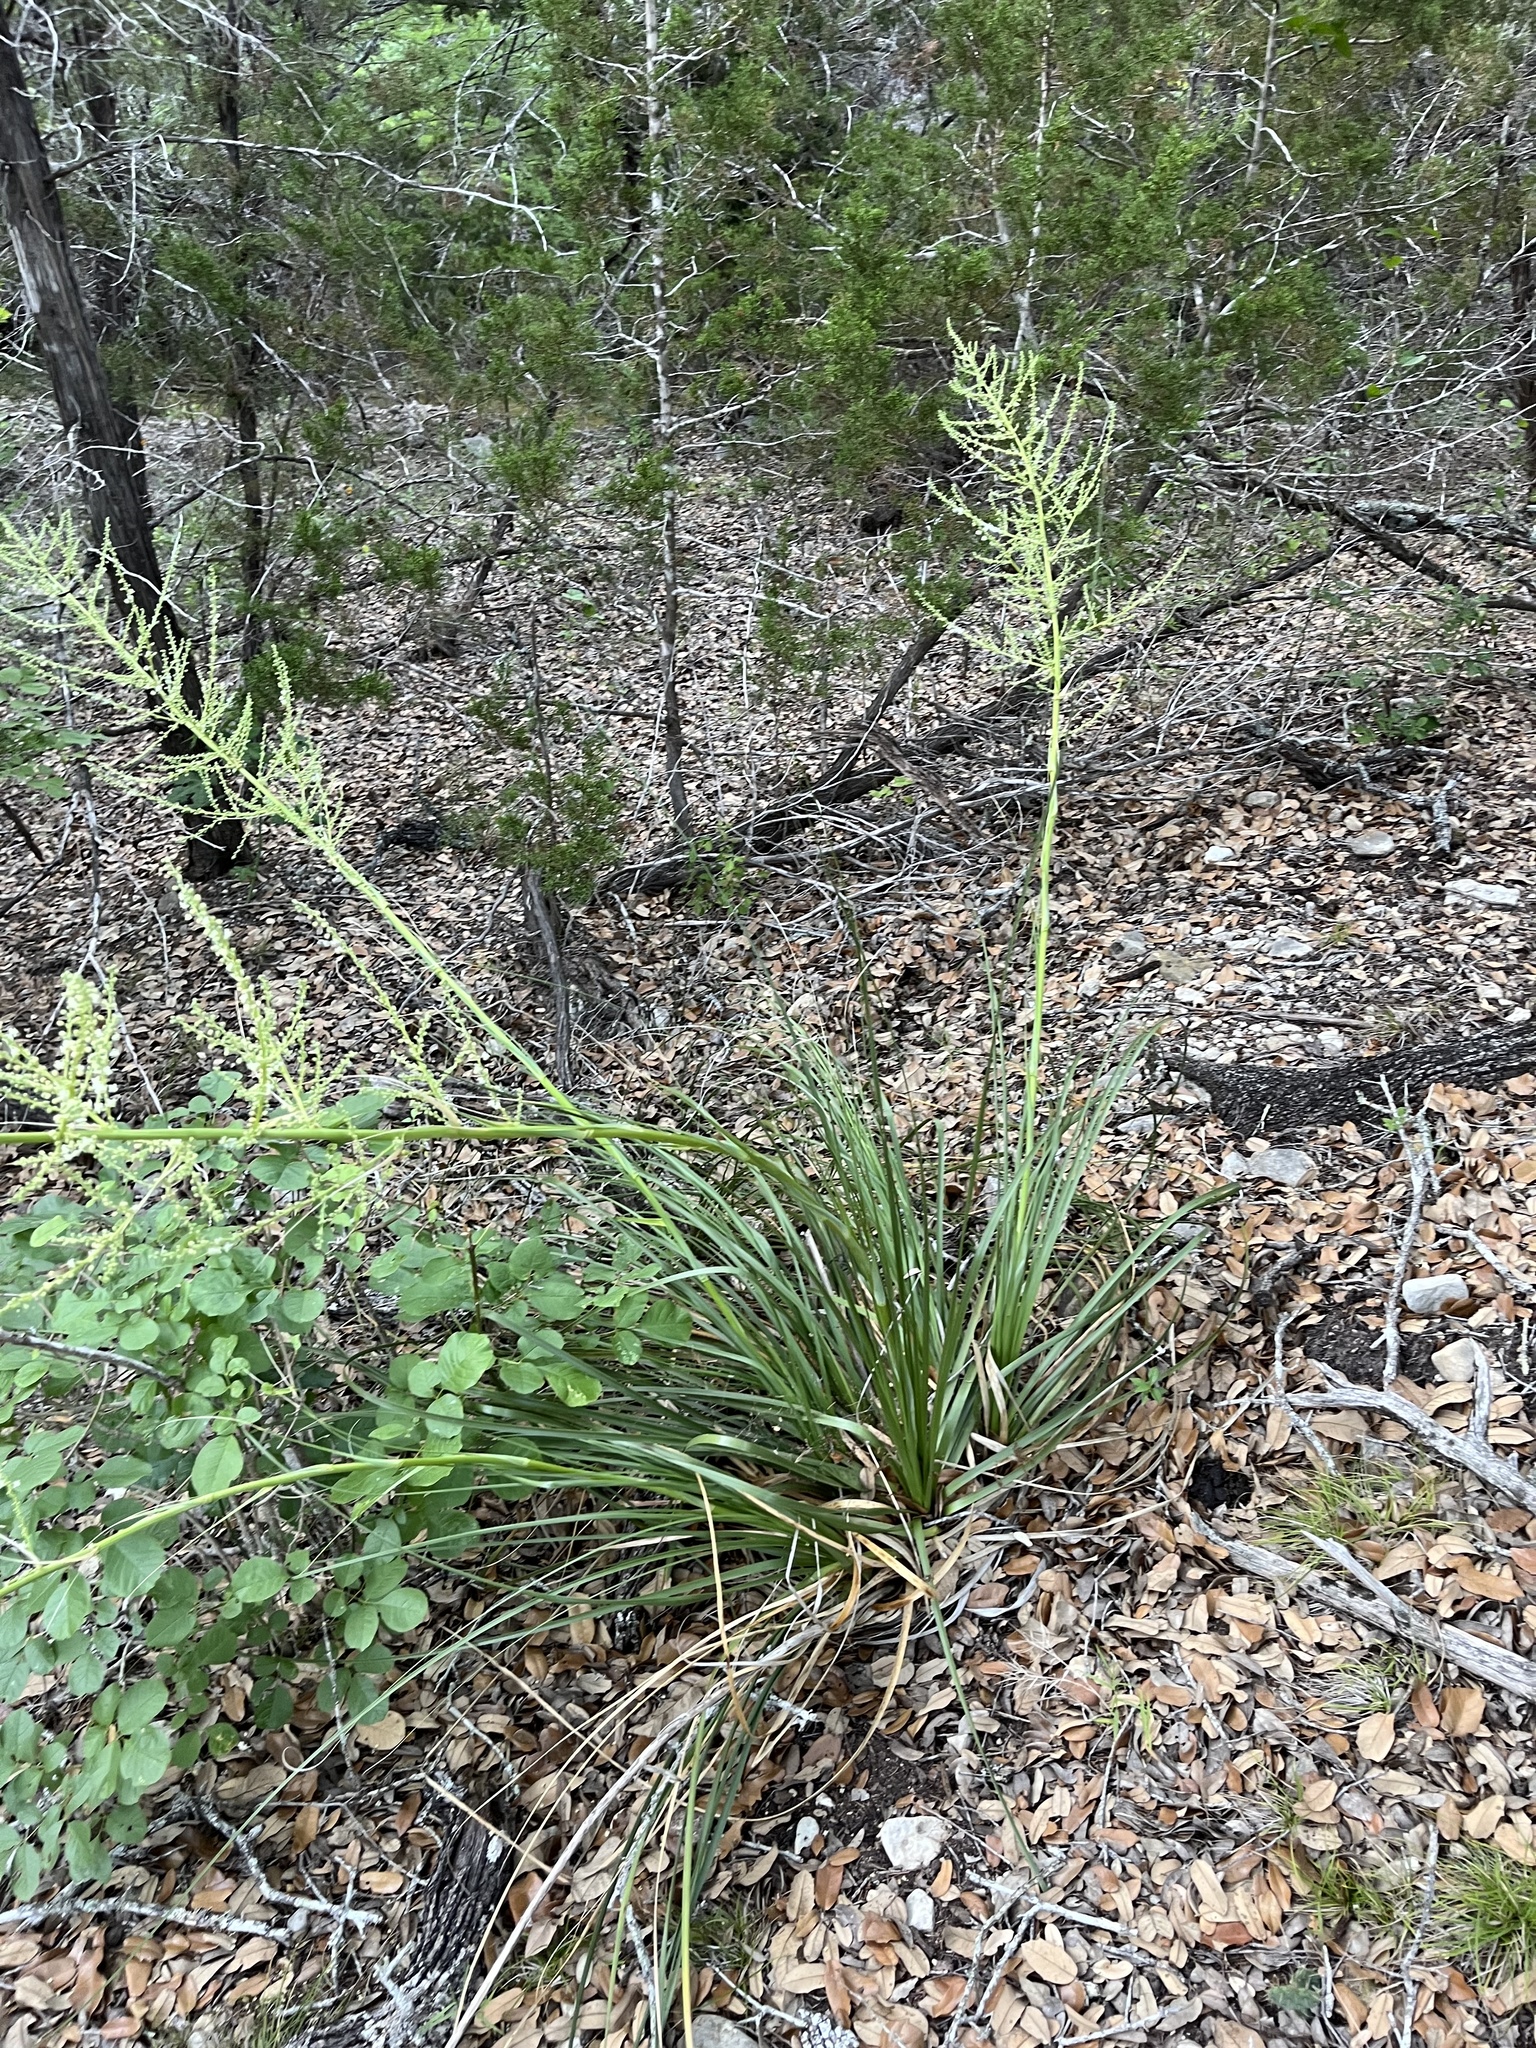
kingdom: Plantae
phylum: Tracheophyta
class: Liliopsida
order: Asparagales
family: Asparagaceae
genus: Nolina
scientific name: Nolina lindheimeriana
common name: Lindheimer's bear-grass
